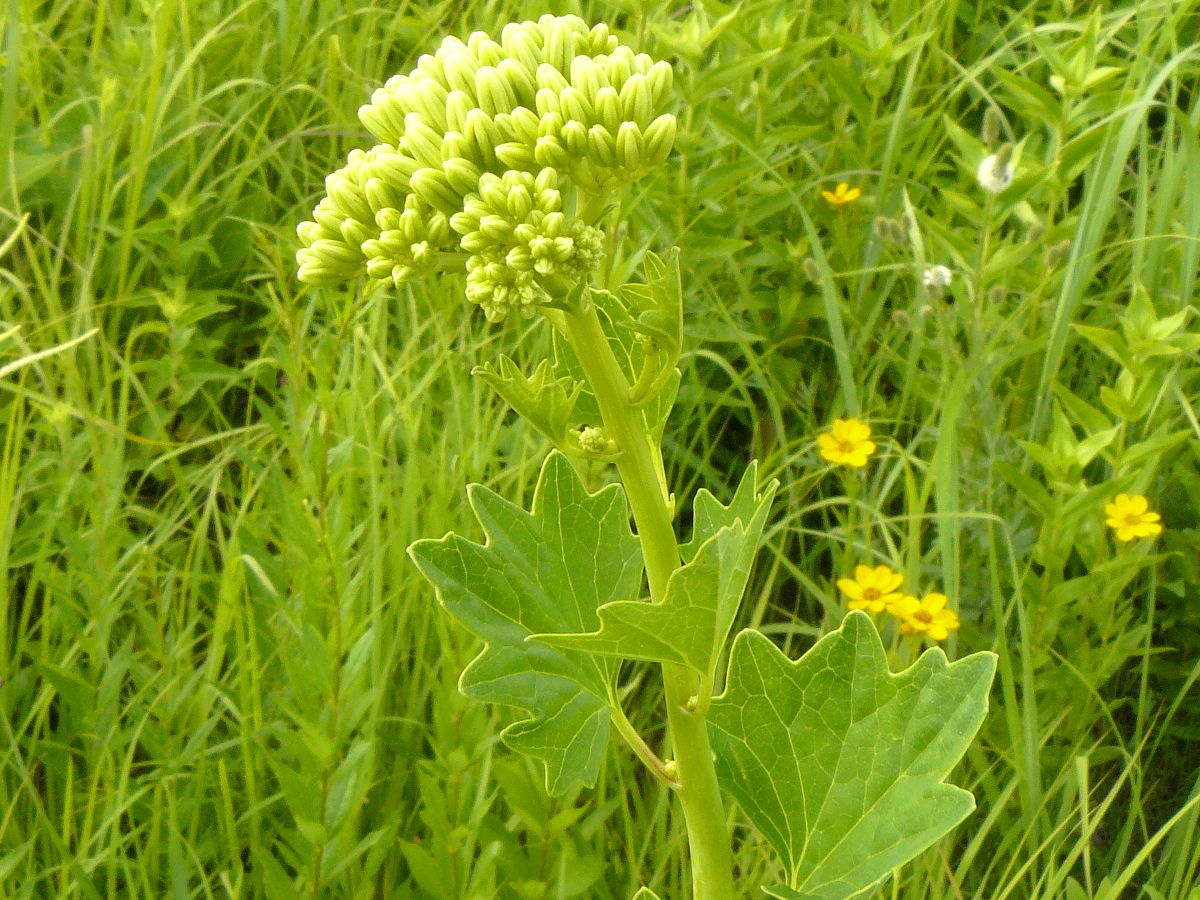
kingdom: Plantae
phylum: Tracheophyta
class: Magnoliopsida
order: Asterales
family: Asteraceae
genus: Arnoglossum
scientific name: Arnoglossum atriplicifolium
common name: Pale indian-plantain
